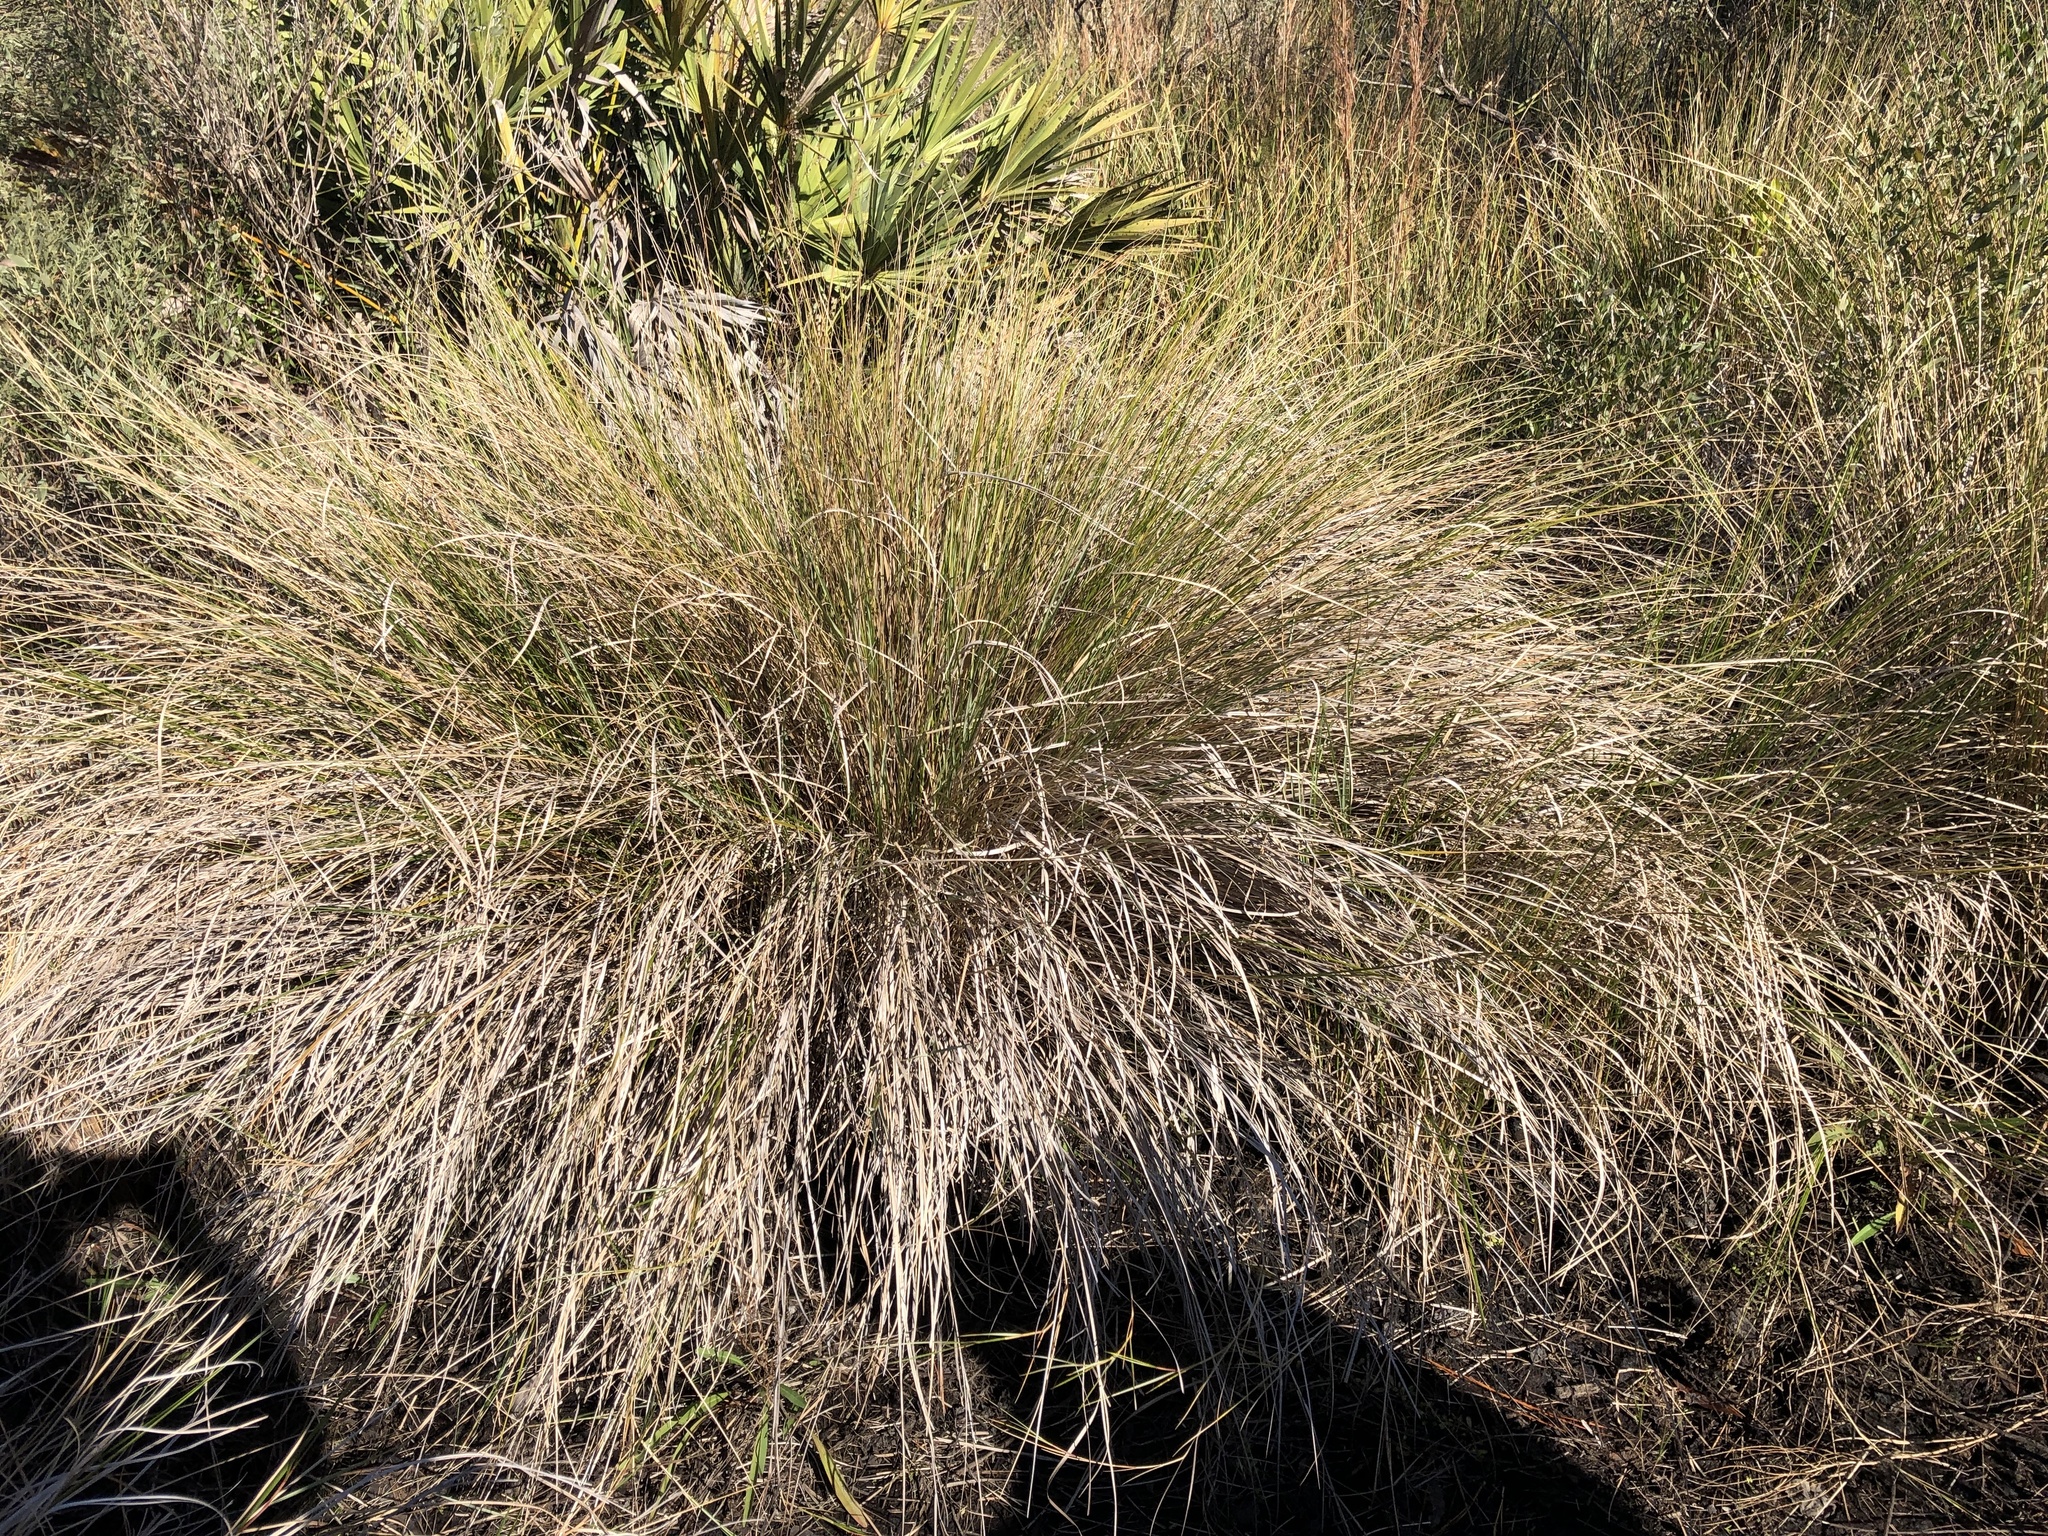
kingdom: Plantae
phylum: Tracheophyta
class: Liliopsida
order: Poales
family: Poaceae
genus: Sporobolus
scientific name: Sporobolus bakeri
